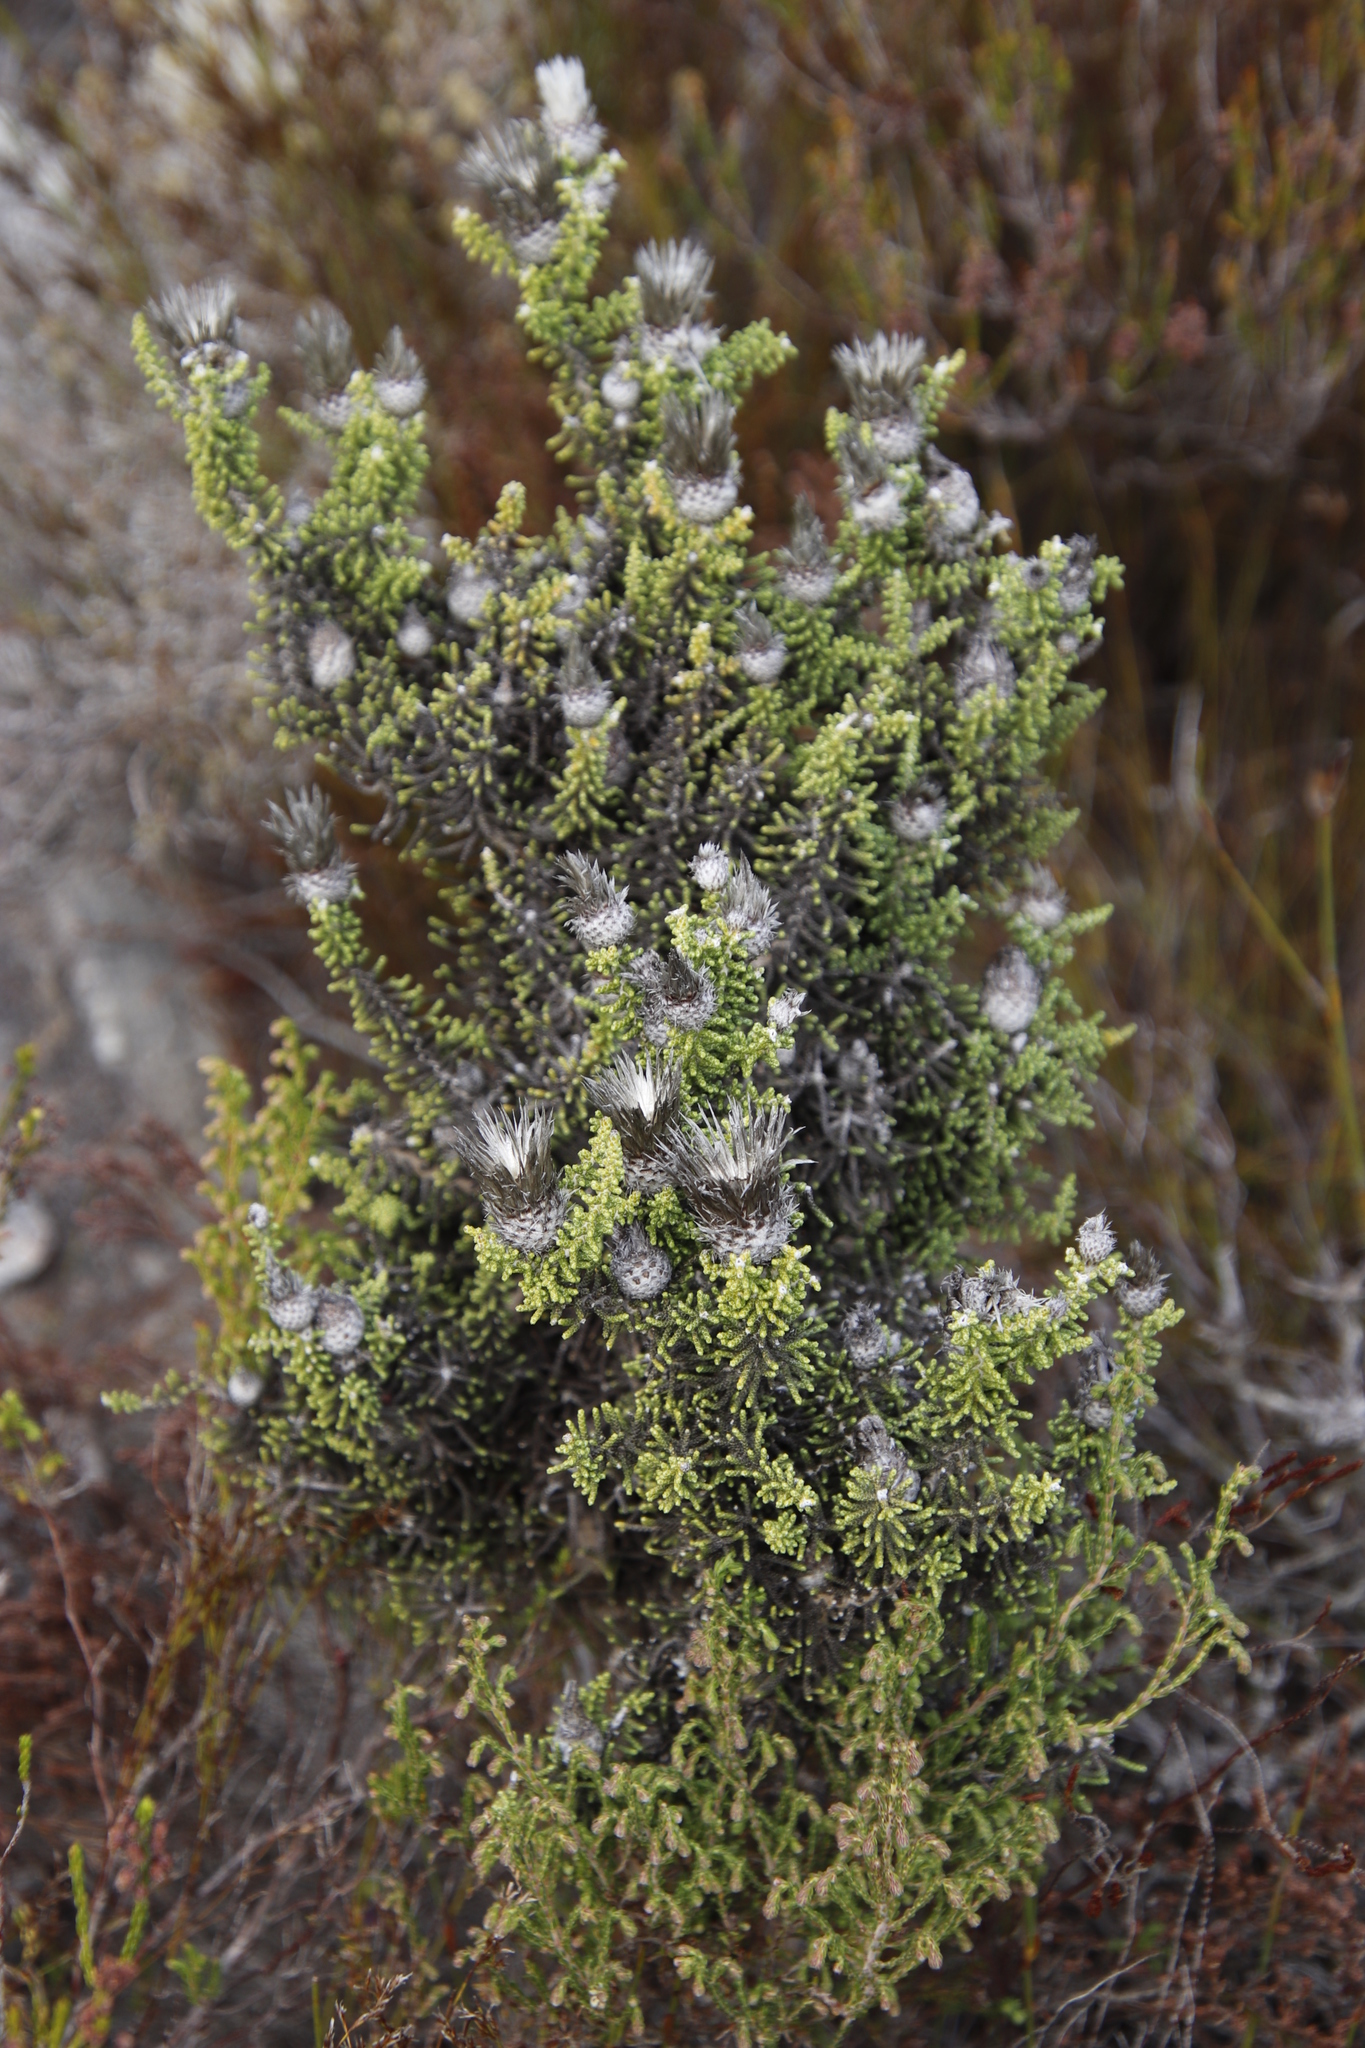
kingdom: Plantae
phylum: Tracheophyta
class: Magnoliopsida
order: Asterales
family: Asteraceae
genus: Phaenocoma
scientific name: Phaenocoma prolifera
